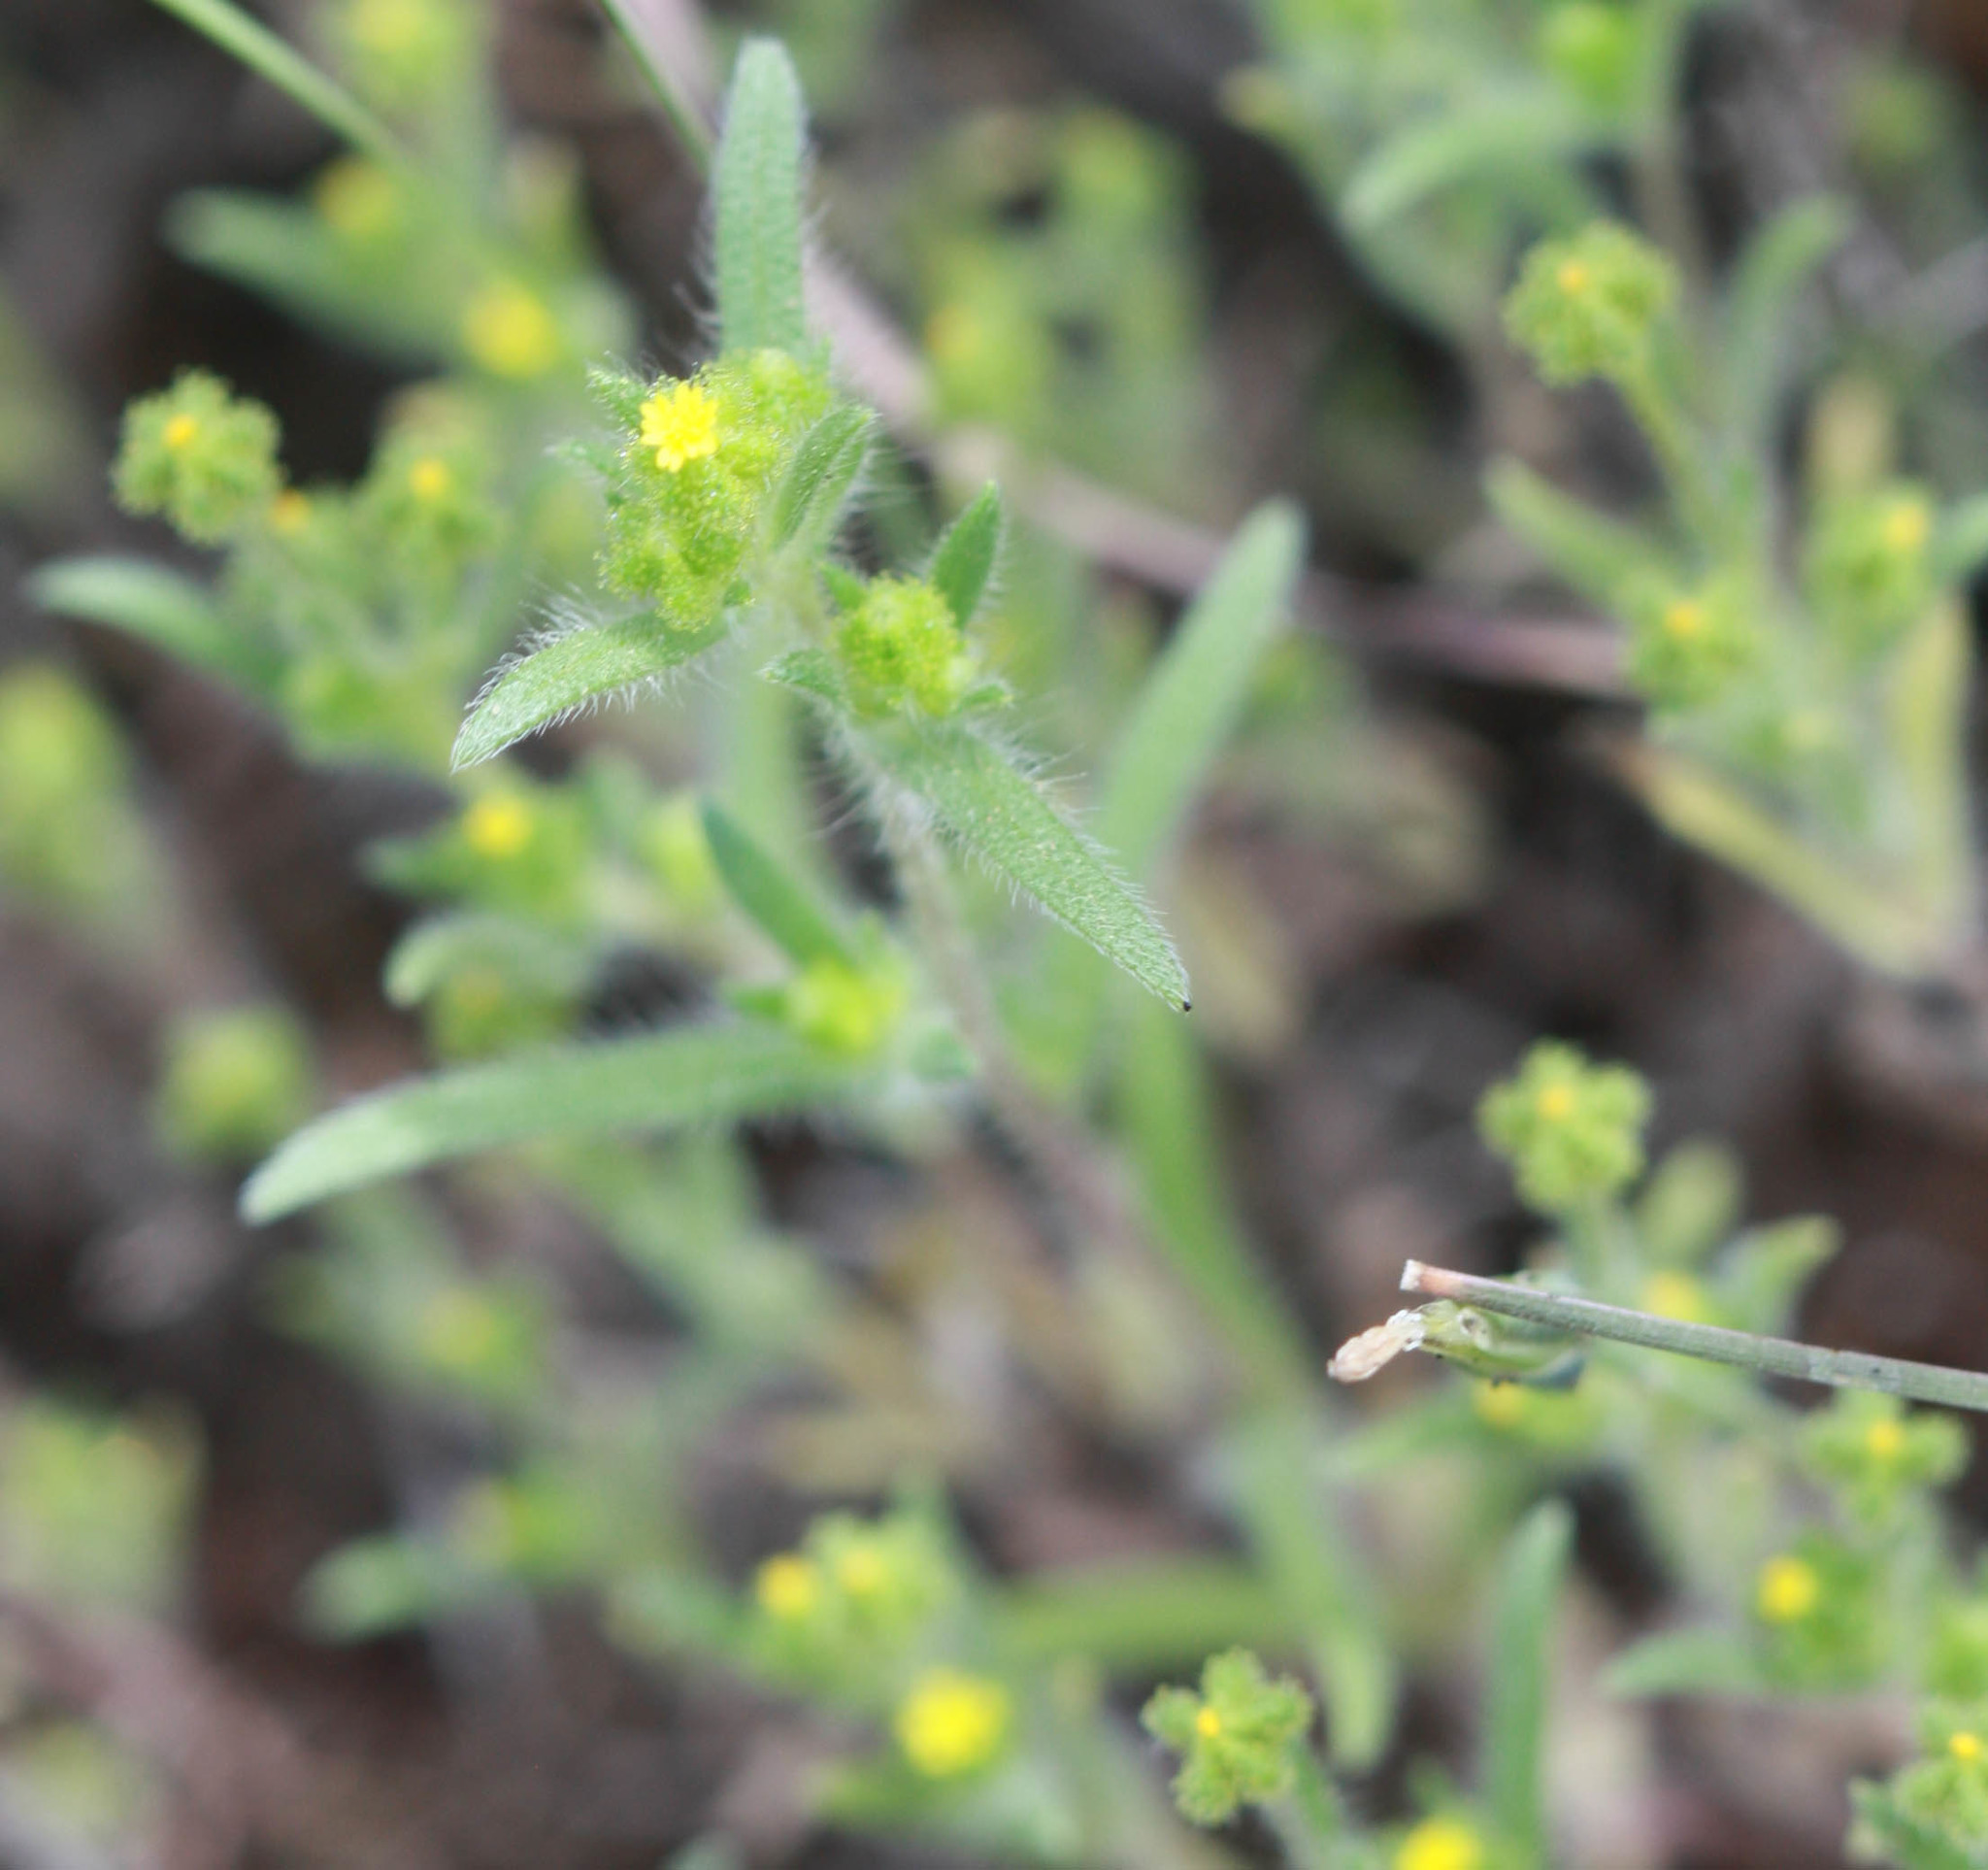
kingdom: Plantae
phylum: Tracheophyta
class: Magnoliopsida
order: Asterales
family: Asteraceae
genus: Madia
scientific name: Madia exigua
